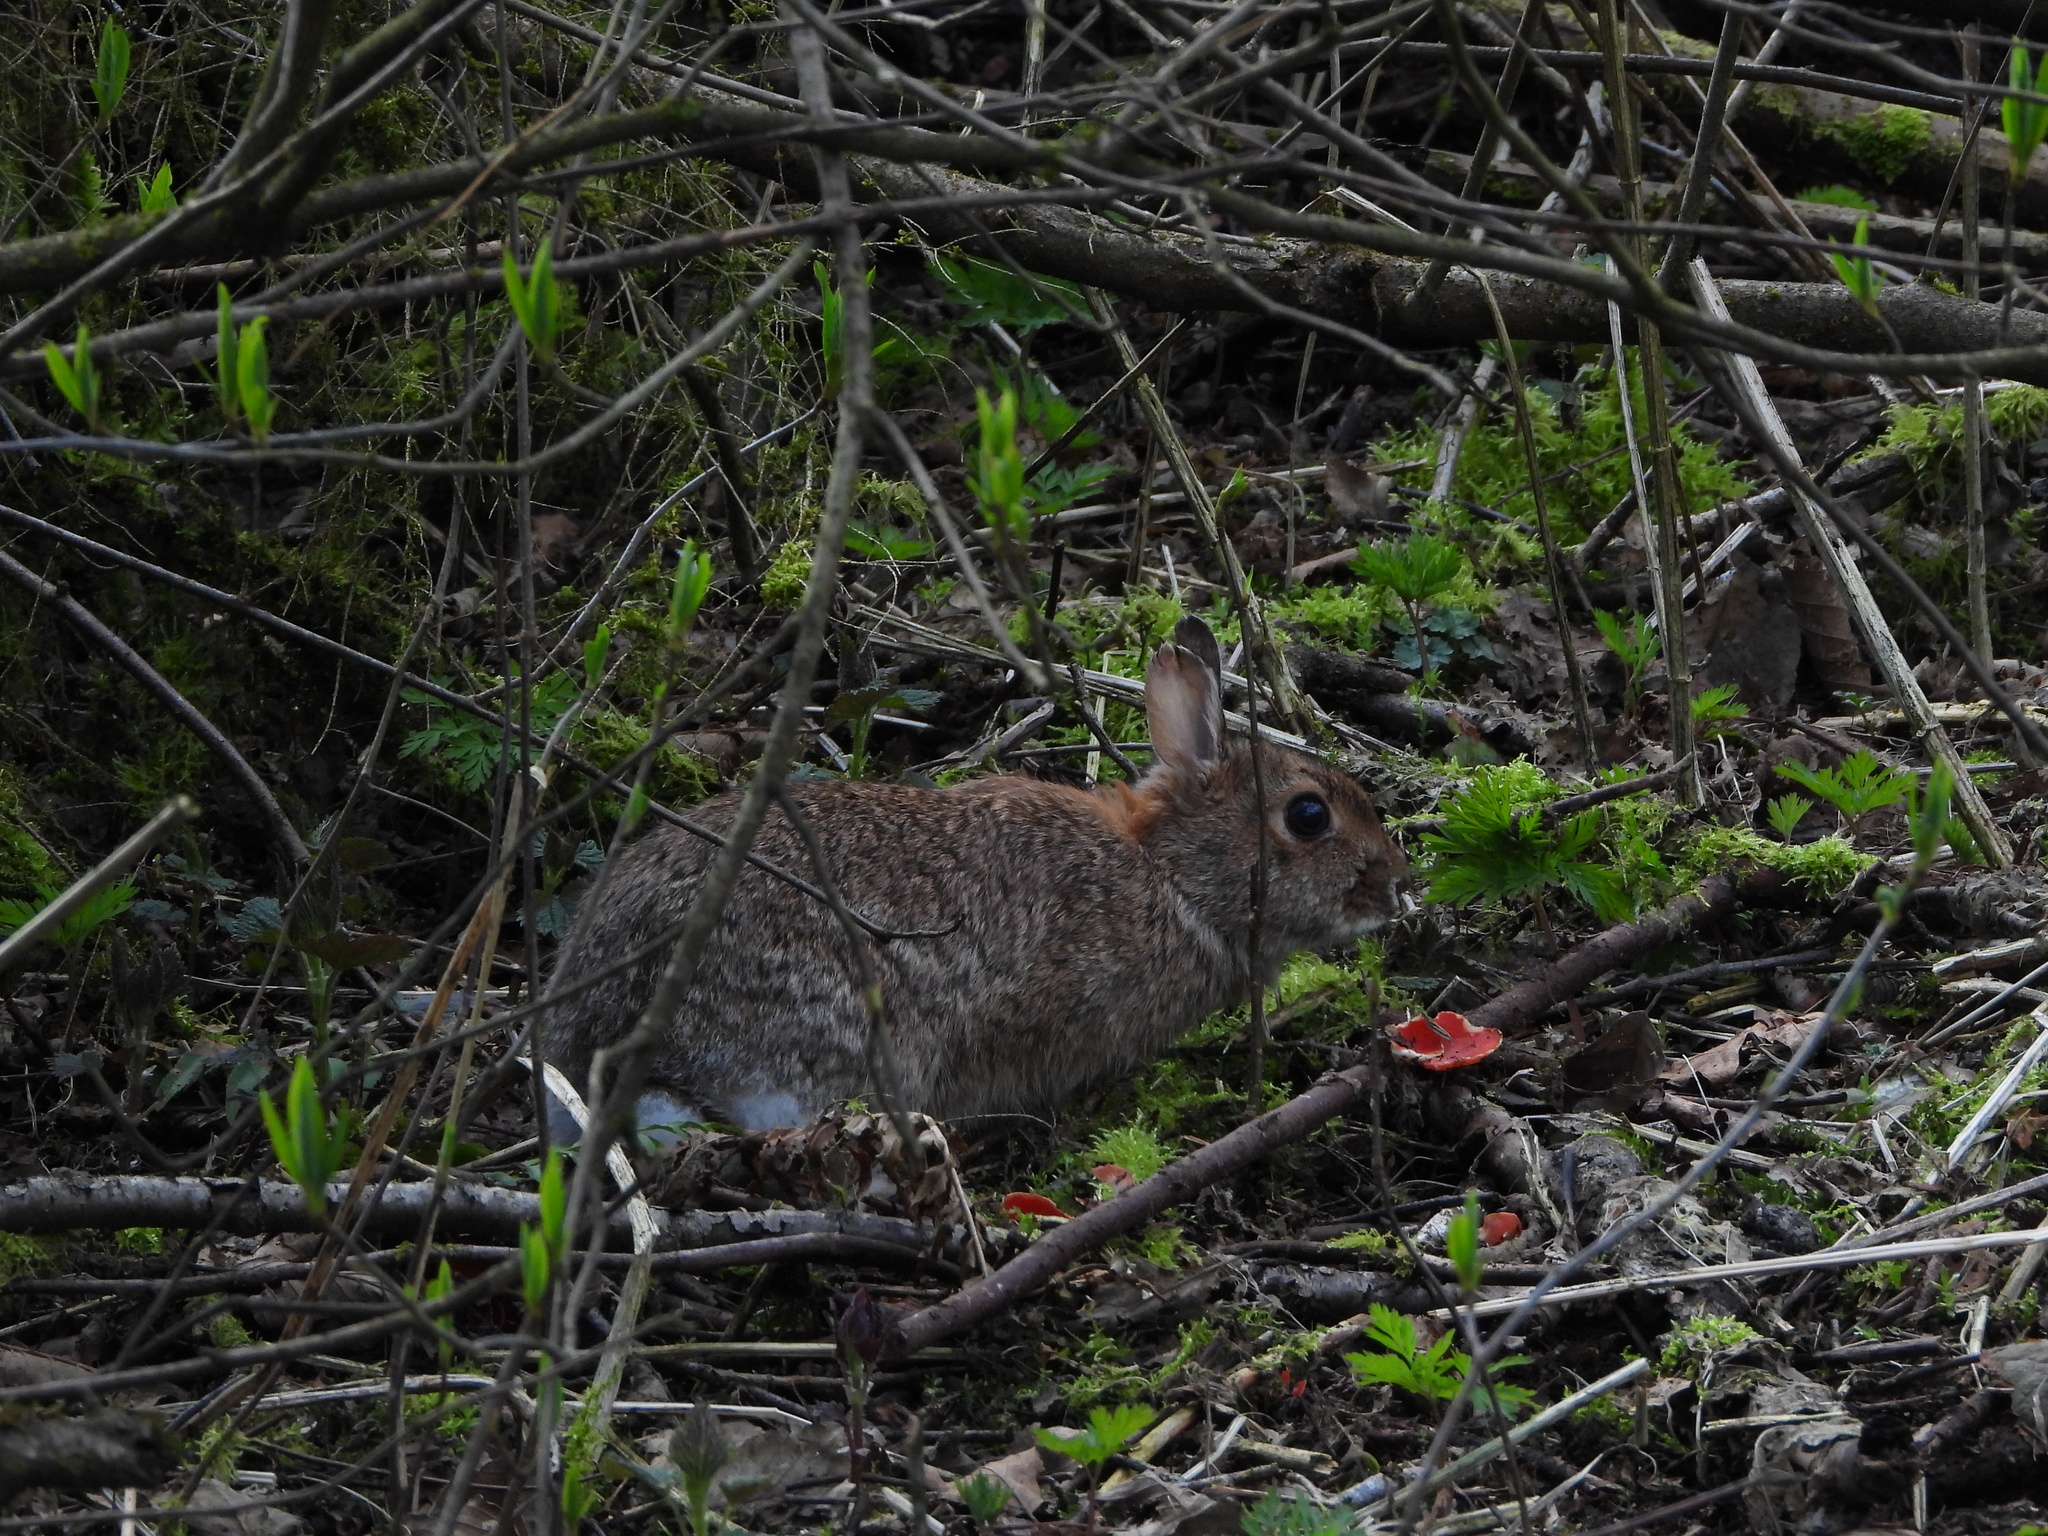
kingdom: Animalia
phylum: Chordata
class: Mammalia
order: Lagomorpha
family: Leporidae
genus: Sylvilagus
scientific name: Sylvilagus floridanus
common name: Eastern cottontail
